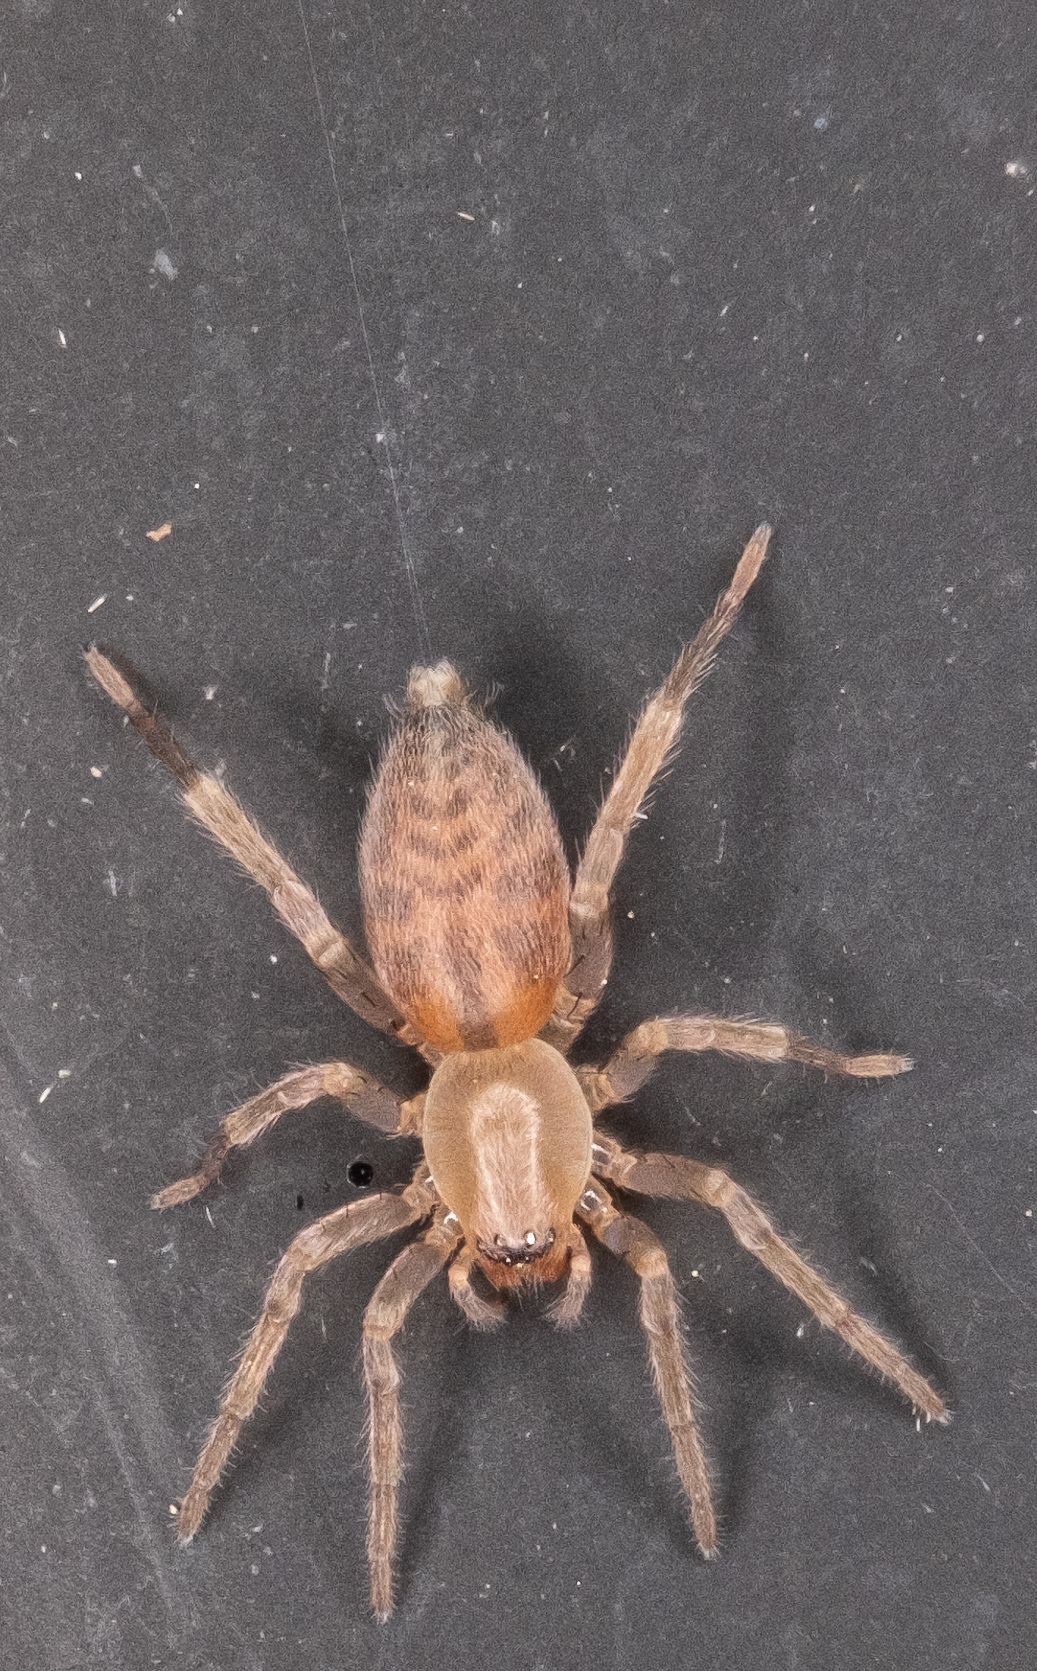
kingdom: Animalia
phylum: Arthropoda
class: Arachnida
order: Araneae
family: Clubionidae
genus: Elaver
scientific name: Elaver excepta
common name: White sac spider
